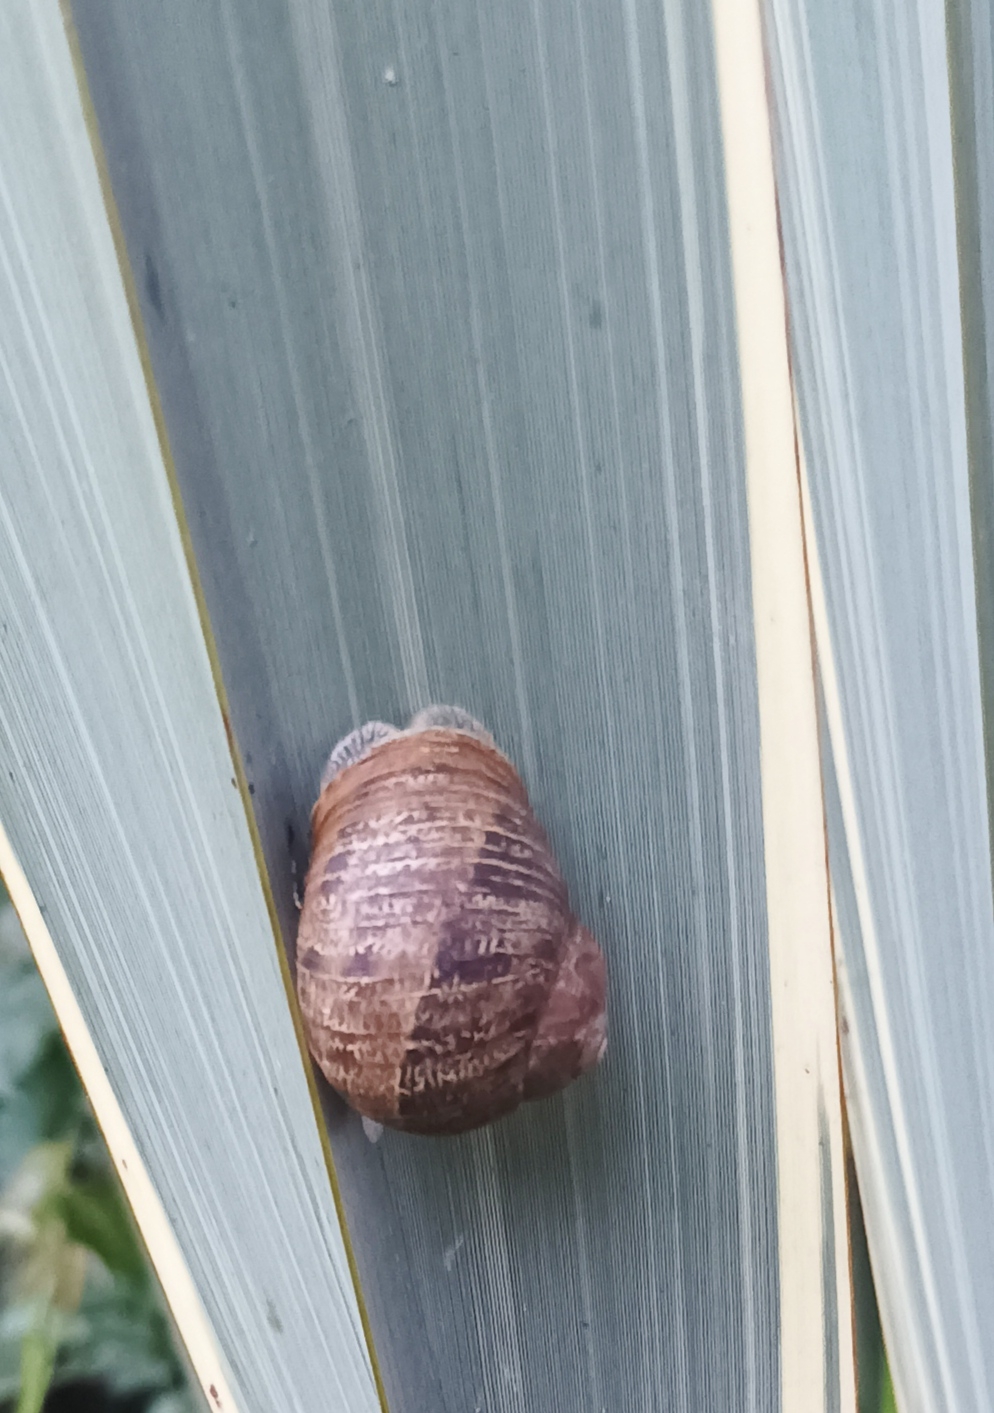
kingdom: Animalia
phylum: Mollusca
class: Gastropoda
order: Stylommatophora
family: Helicidae
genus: Cornu
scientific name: Cornu aspersum
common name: Brown garden snail
